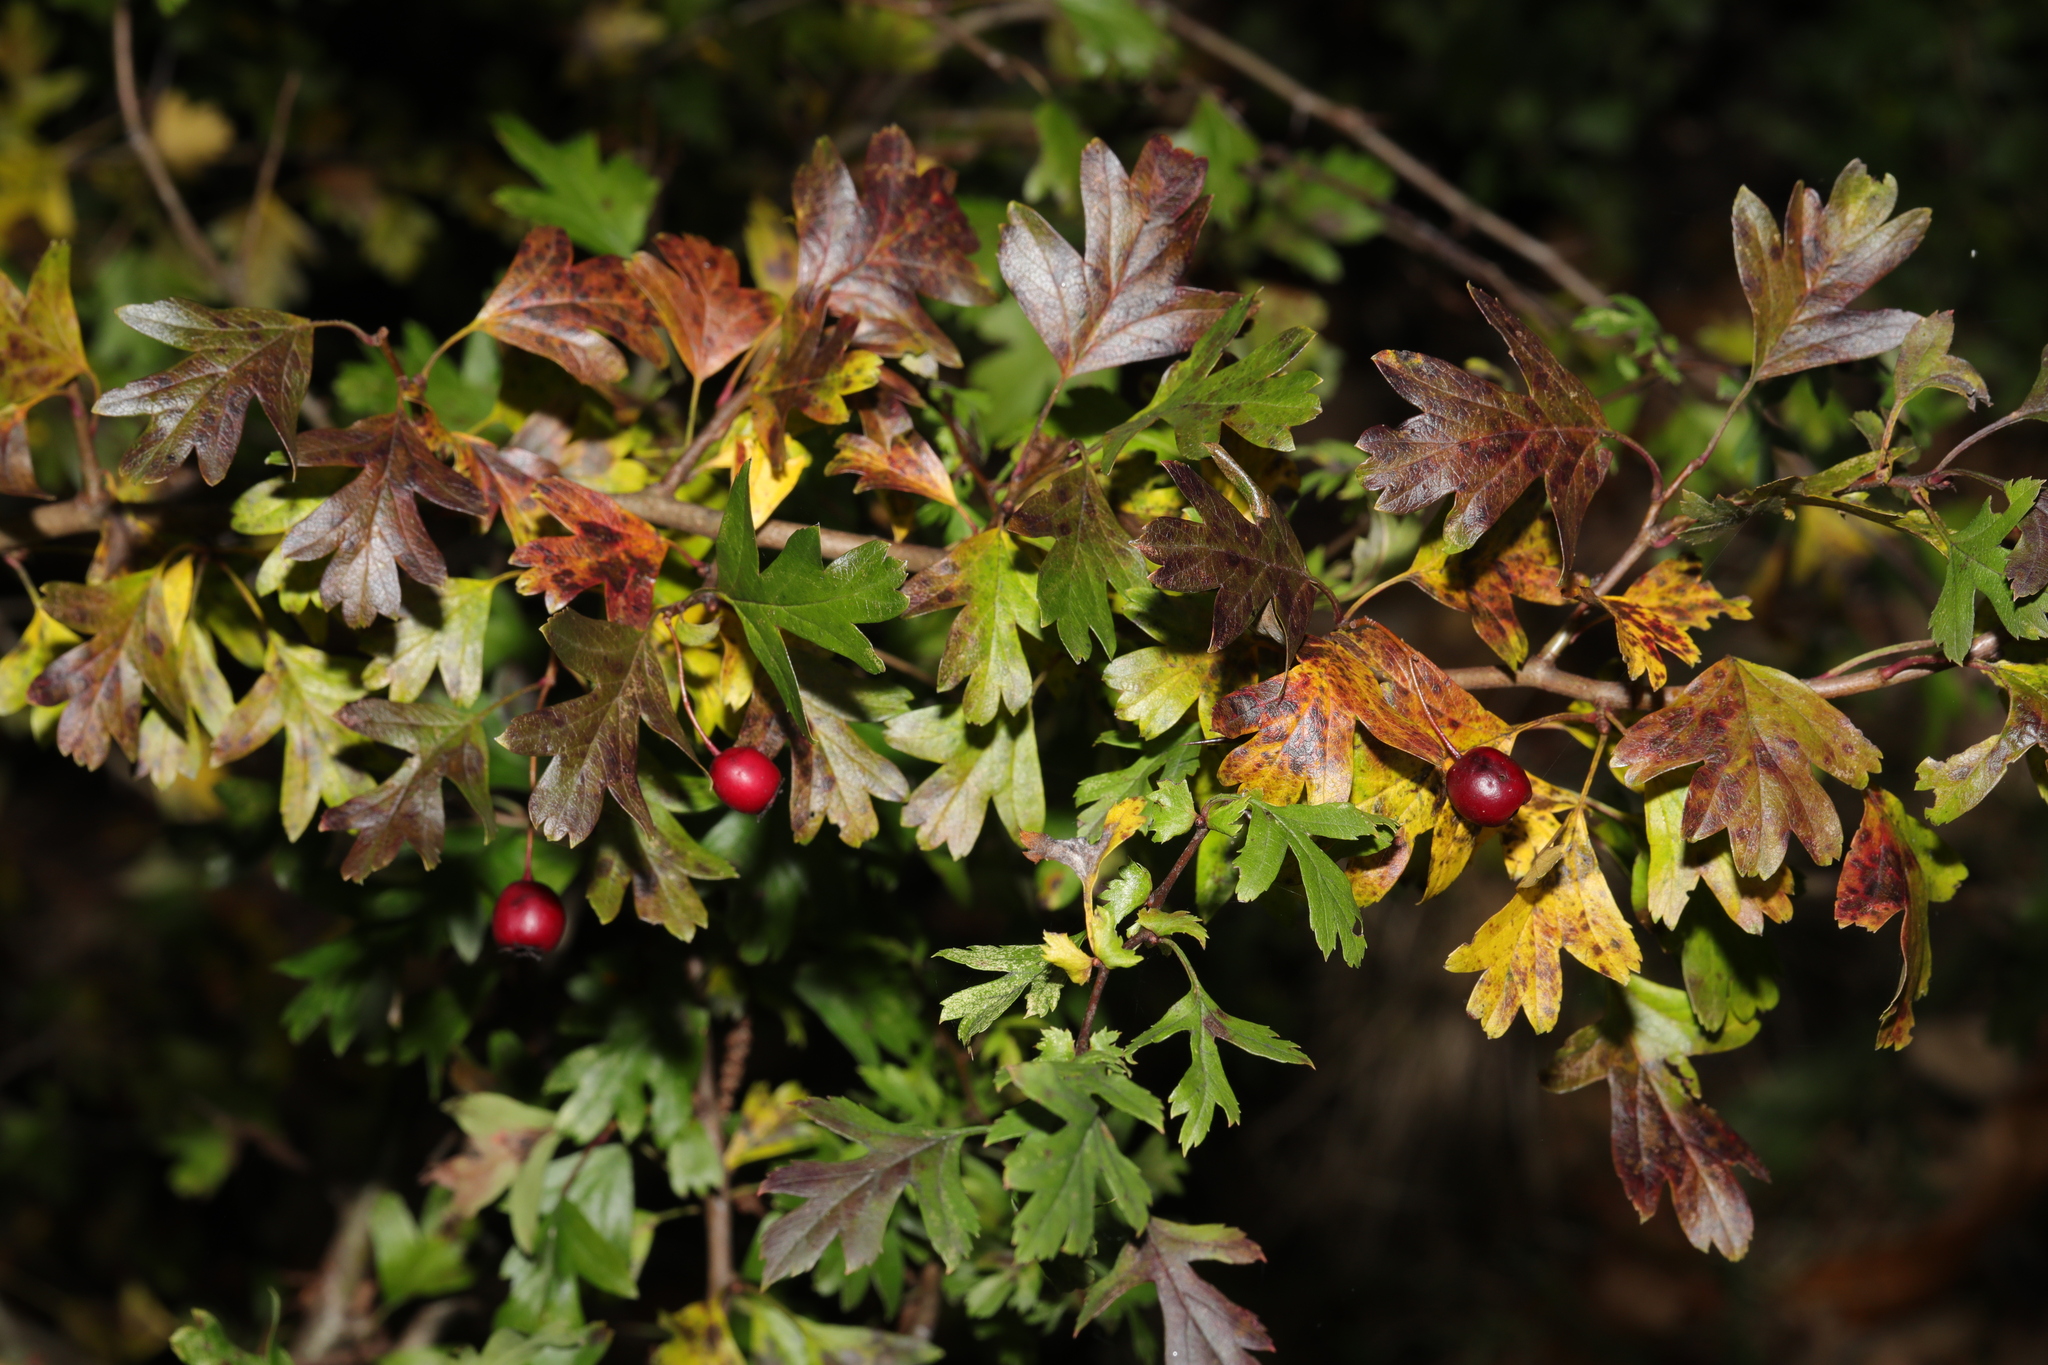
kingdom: Plantae
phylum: Tracheophyta
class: Magnoliopsida
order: Rosales
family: Rosaceae
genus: Crataegus
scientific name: Crataegus monogyna
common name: Hawthorn
